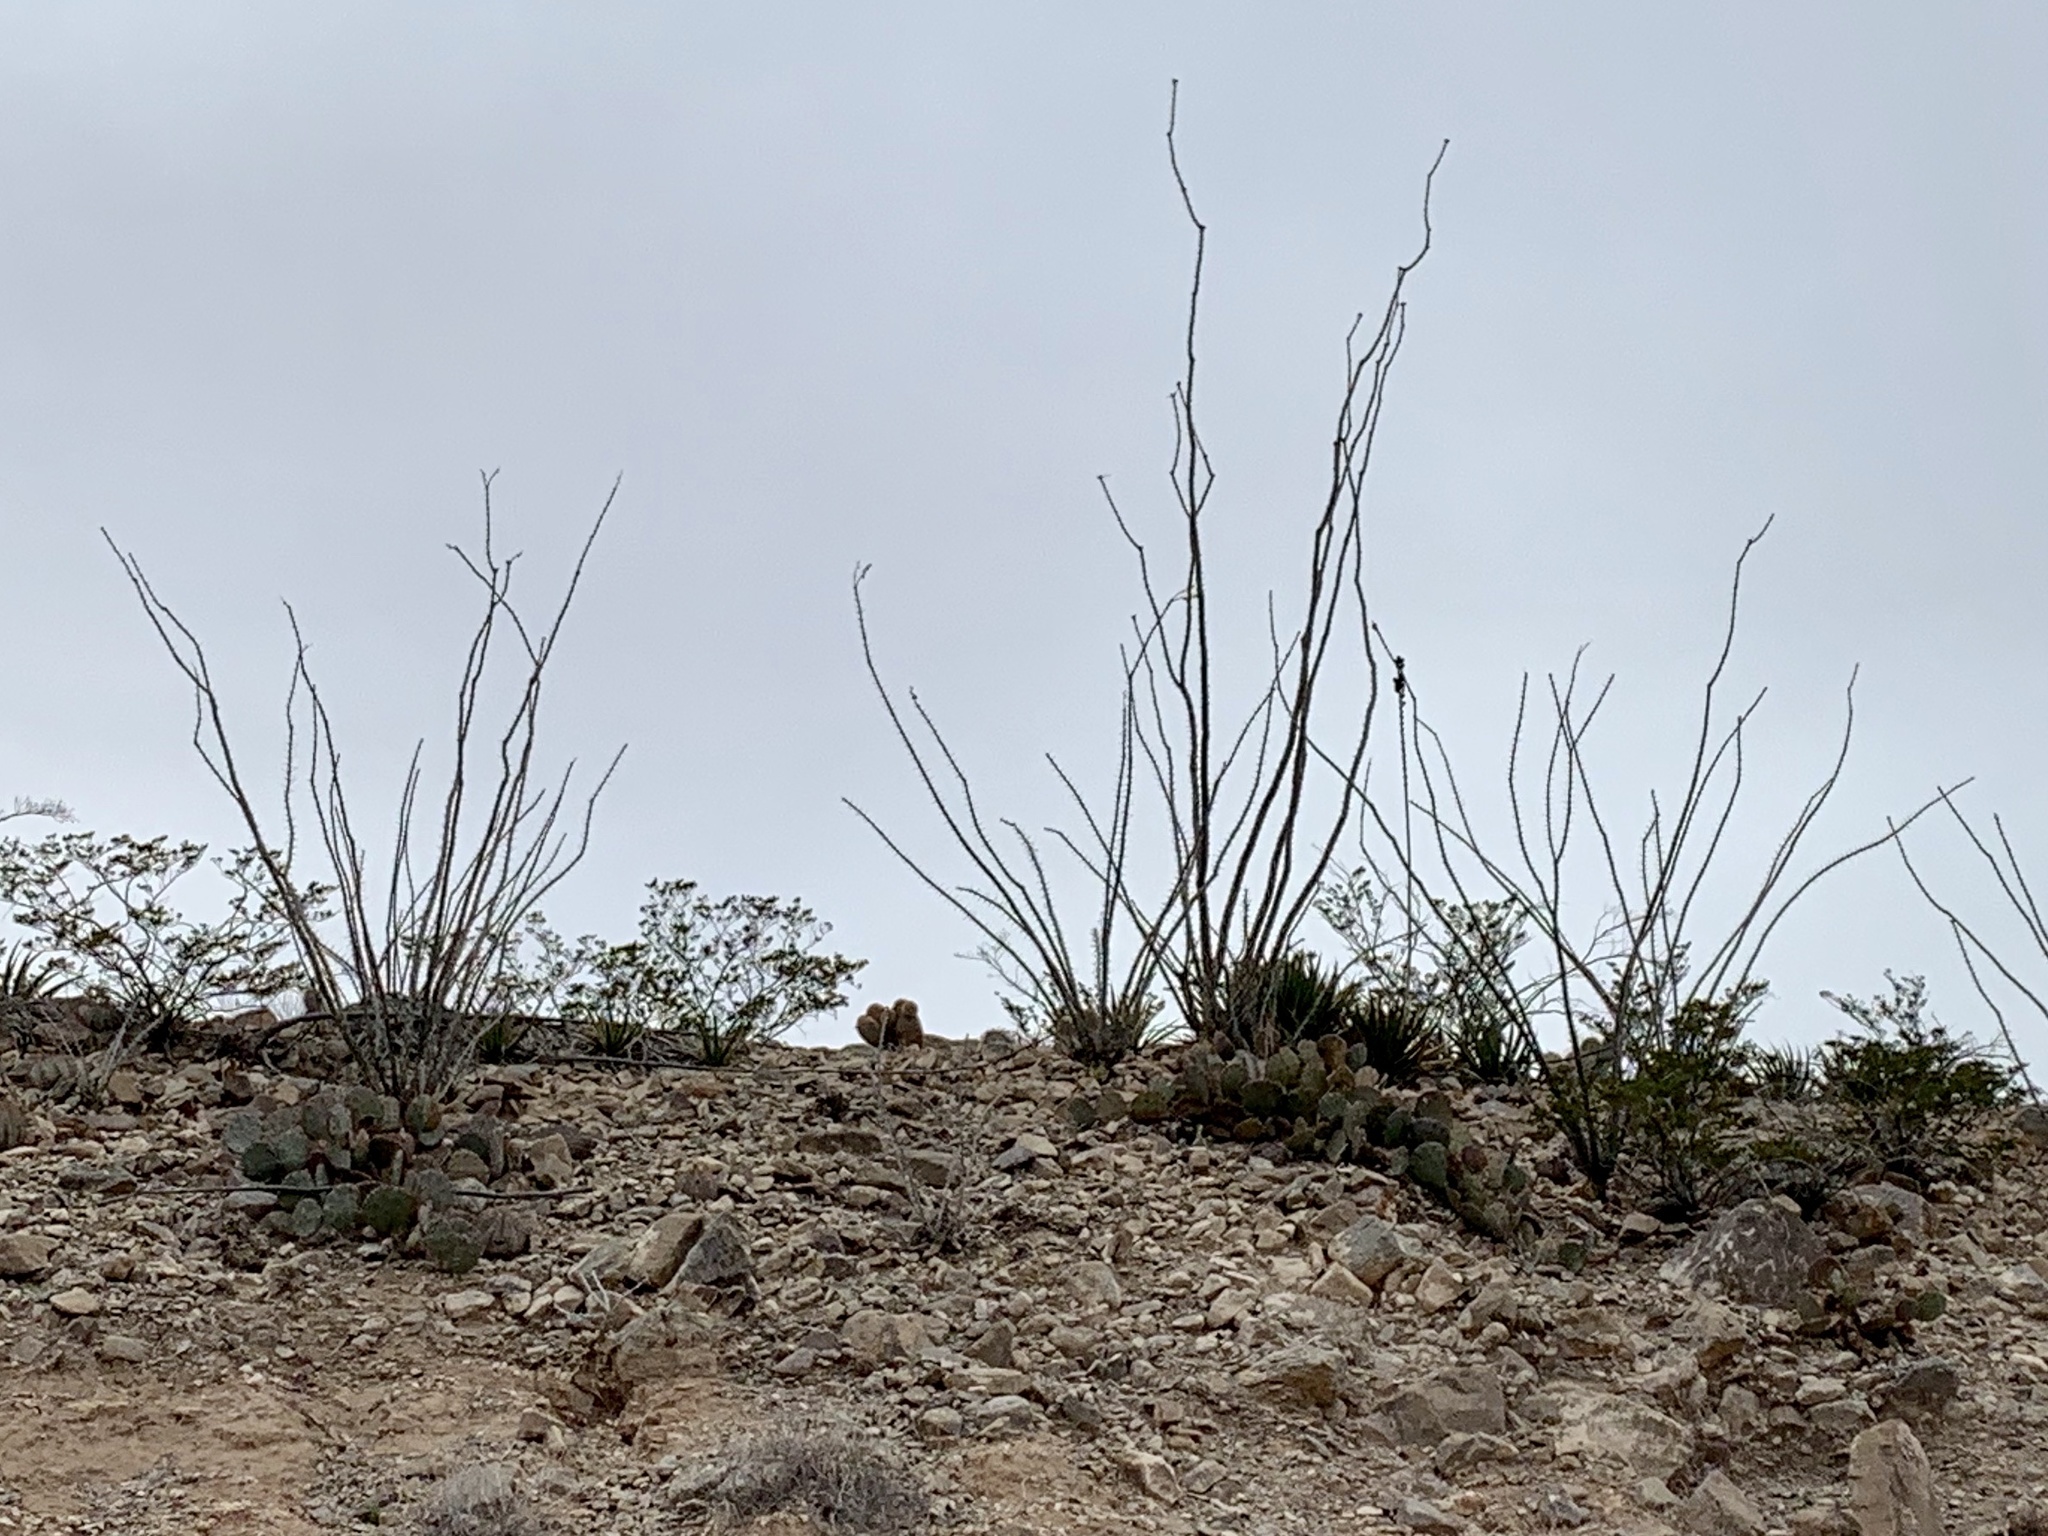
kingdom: Plantae
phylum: Tracheophyta
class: Magnoliopsida
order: Ericales
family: Fouquieriaceae
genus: Fouquieria
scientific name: Fouquieria splendens
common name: Vine-cactus
